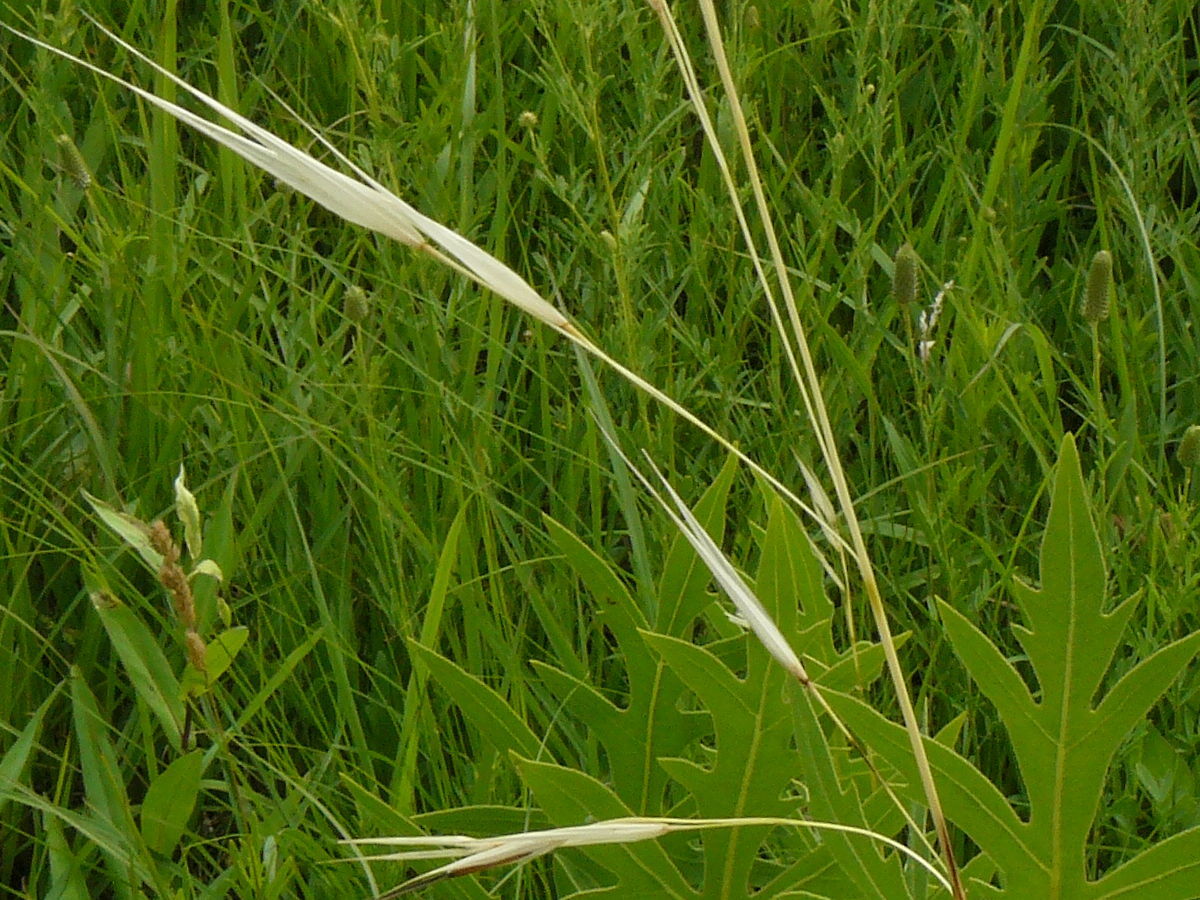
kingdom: Plantae
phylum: Tracheophyta
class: Liliopsida
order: Poales
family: Poaceae
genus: Hesperostipa
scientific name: Hesperostipa spartea
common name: Porcupine grass
